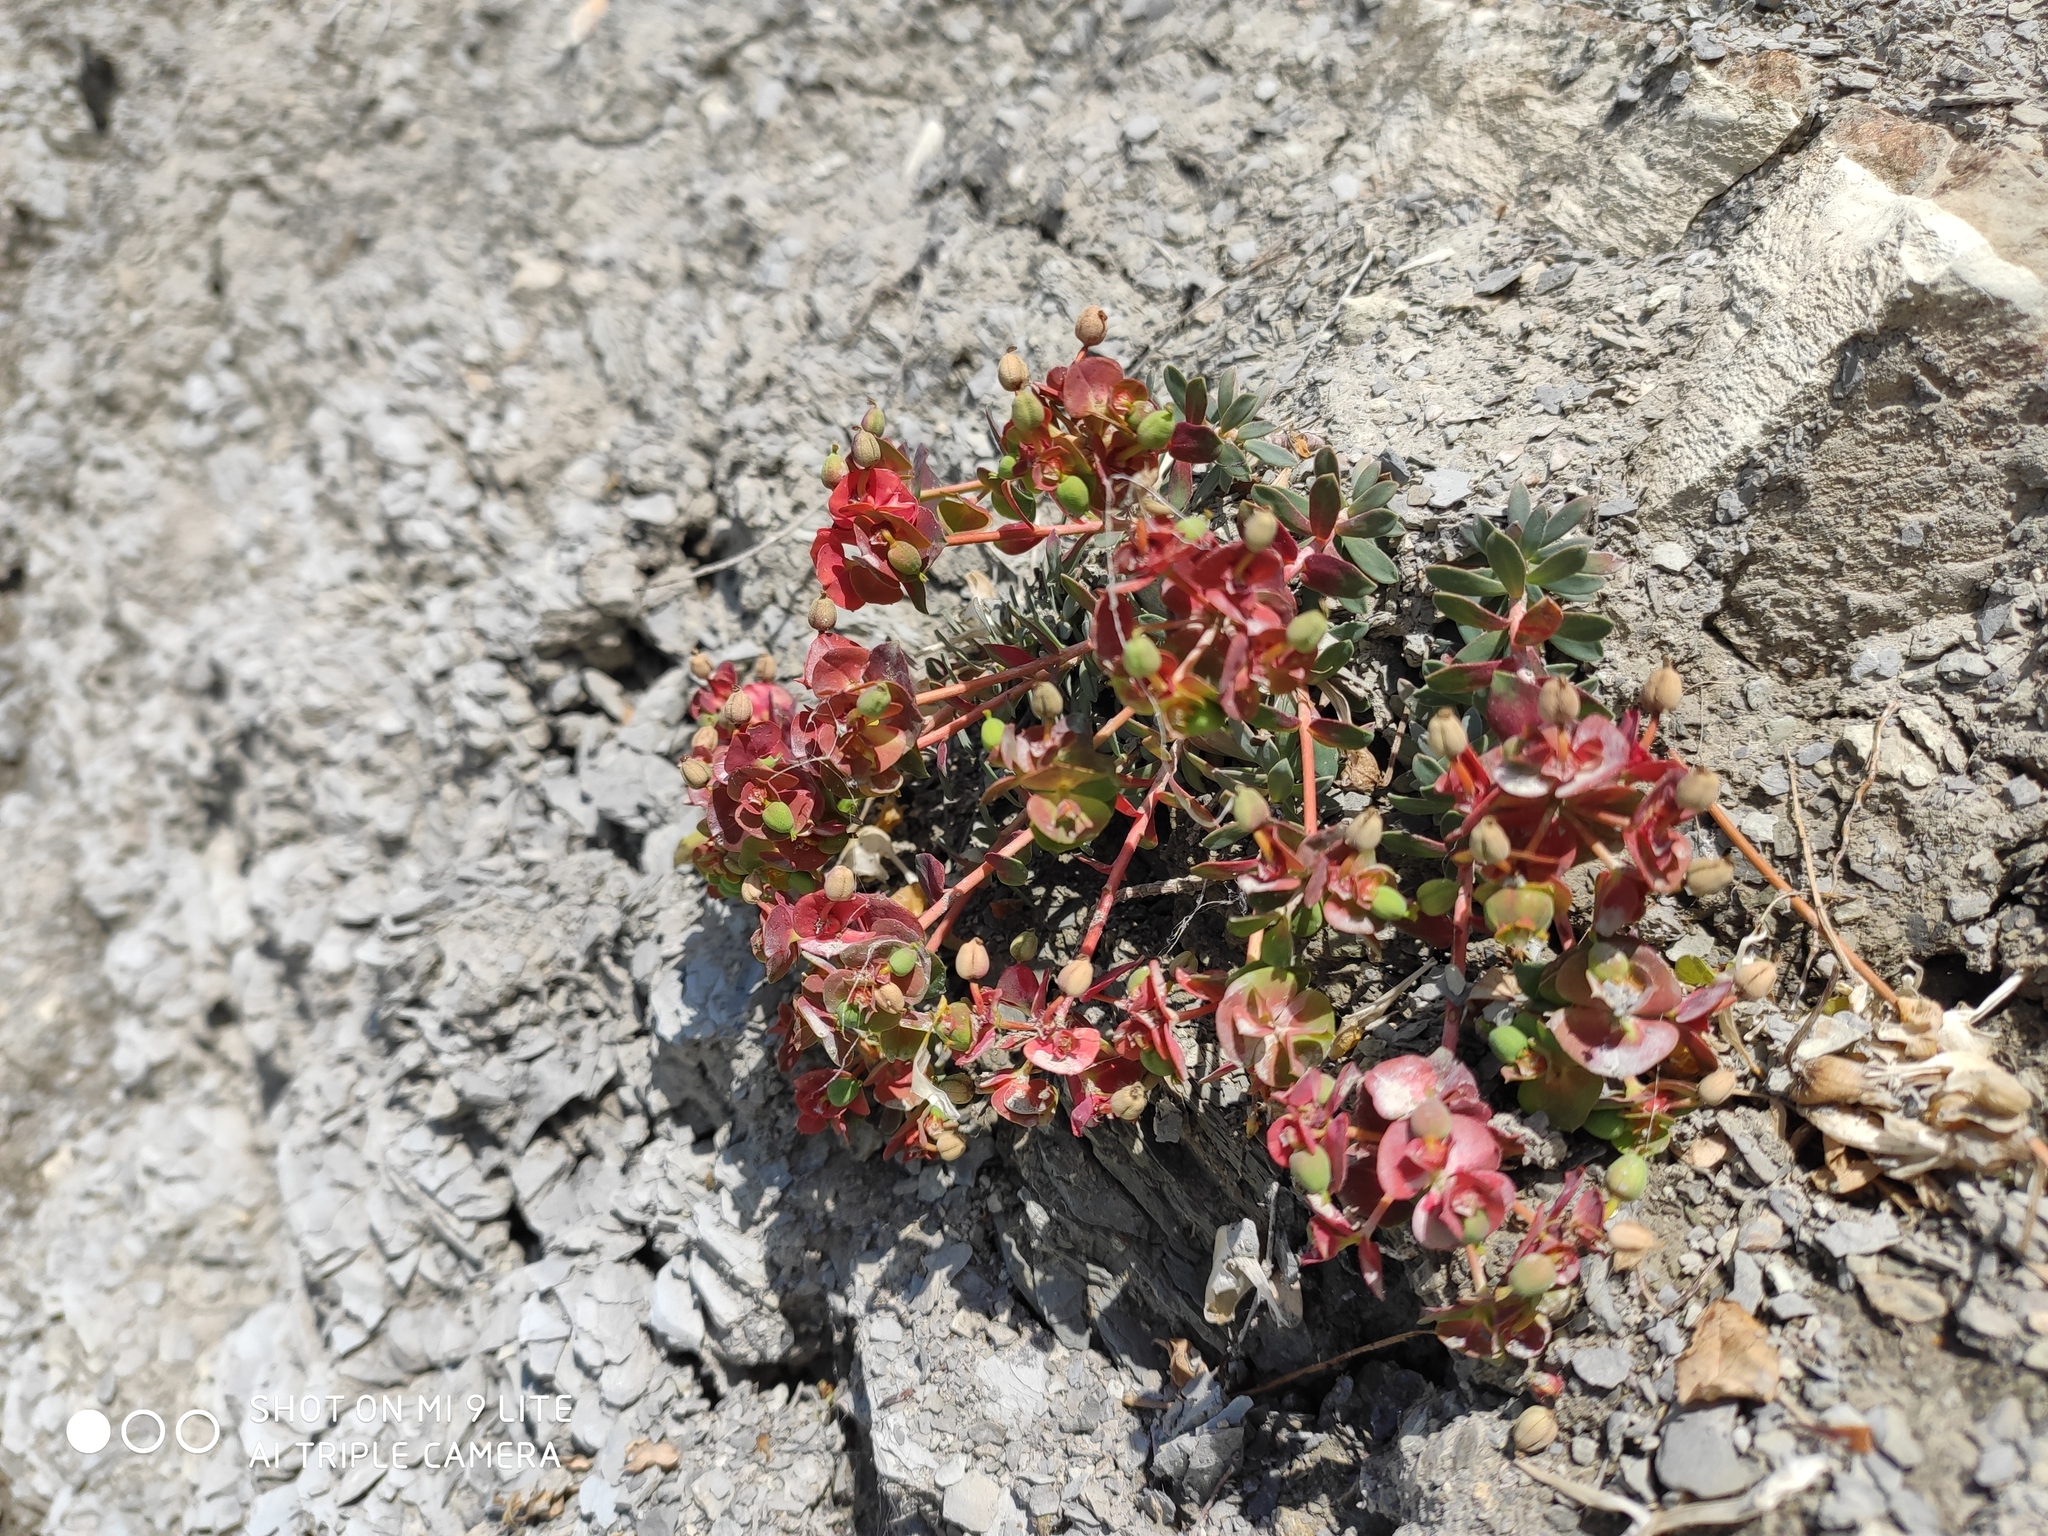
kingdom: Plantae
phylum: Tracheophyta
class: Magnoliopsida
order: Malpighiales
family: Euphorbiaceae
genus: Euphorbia
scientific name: Euphorbia petrophila
